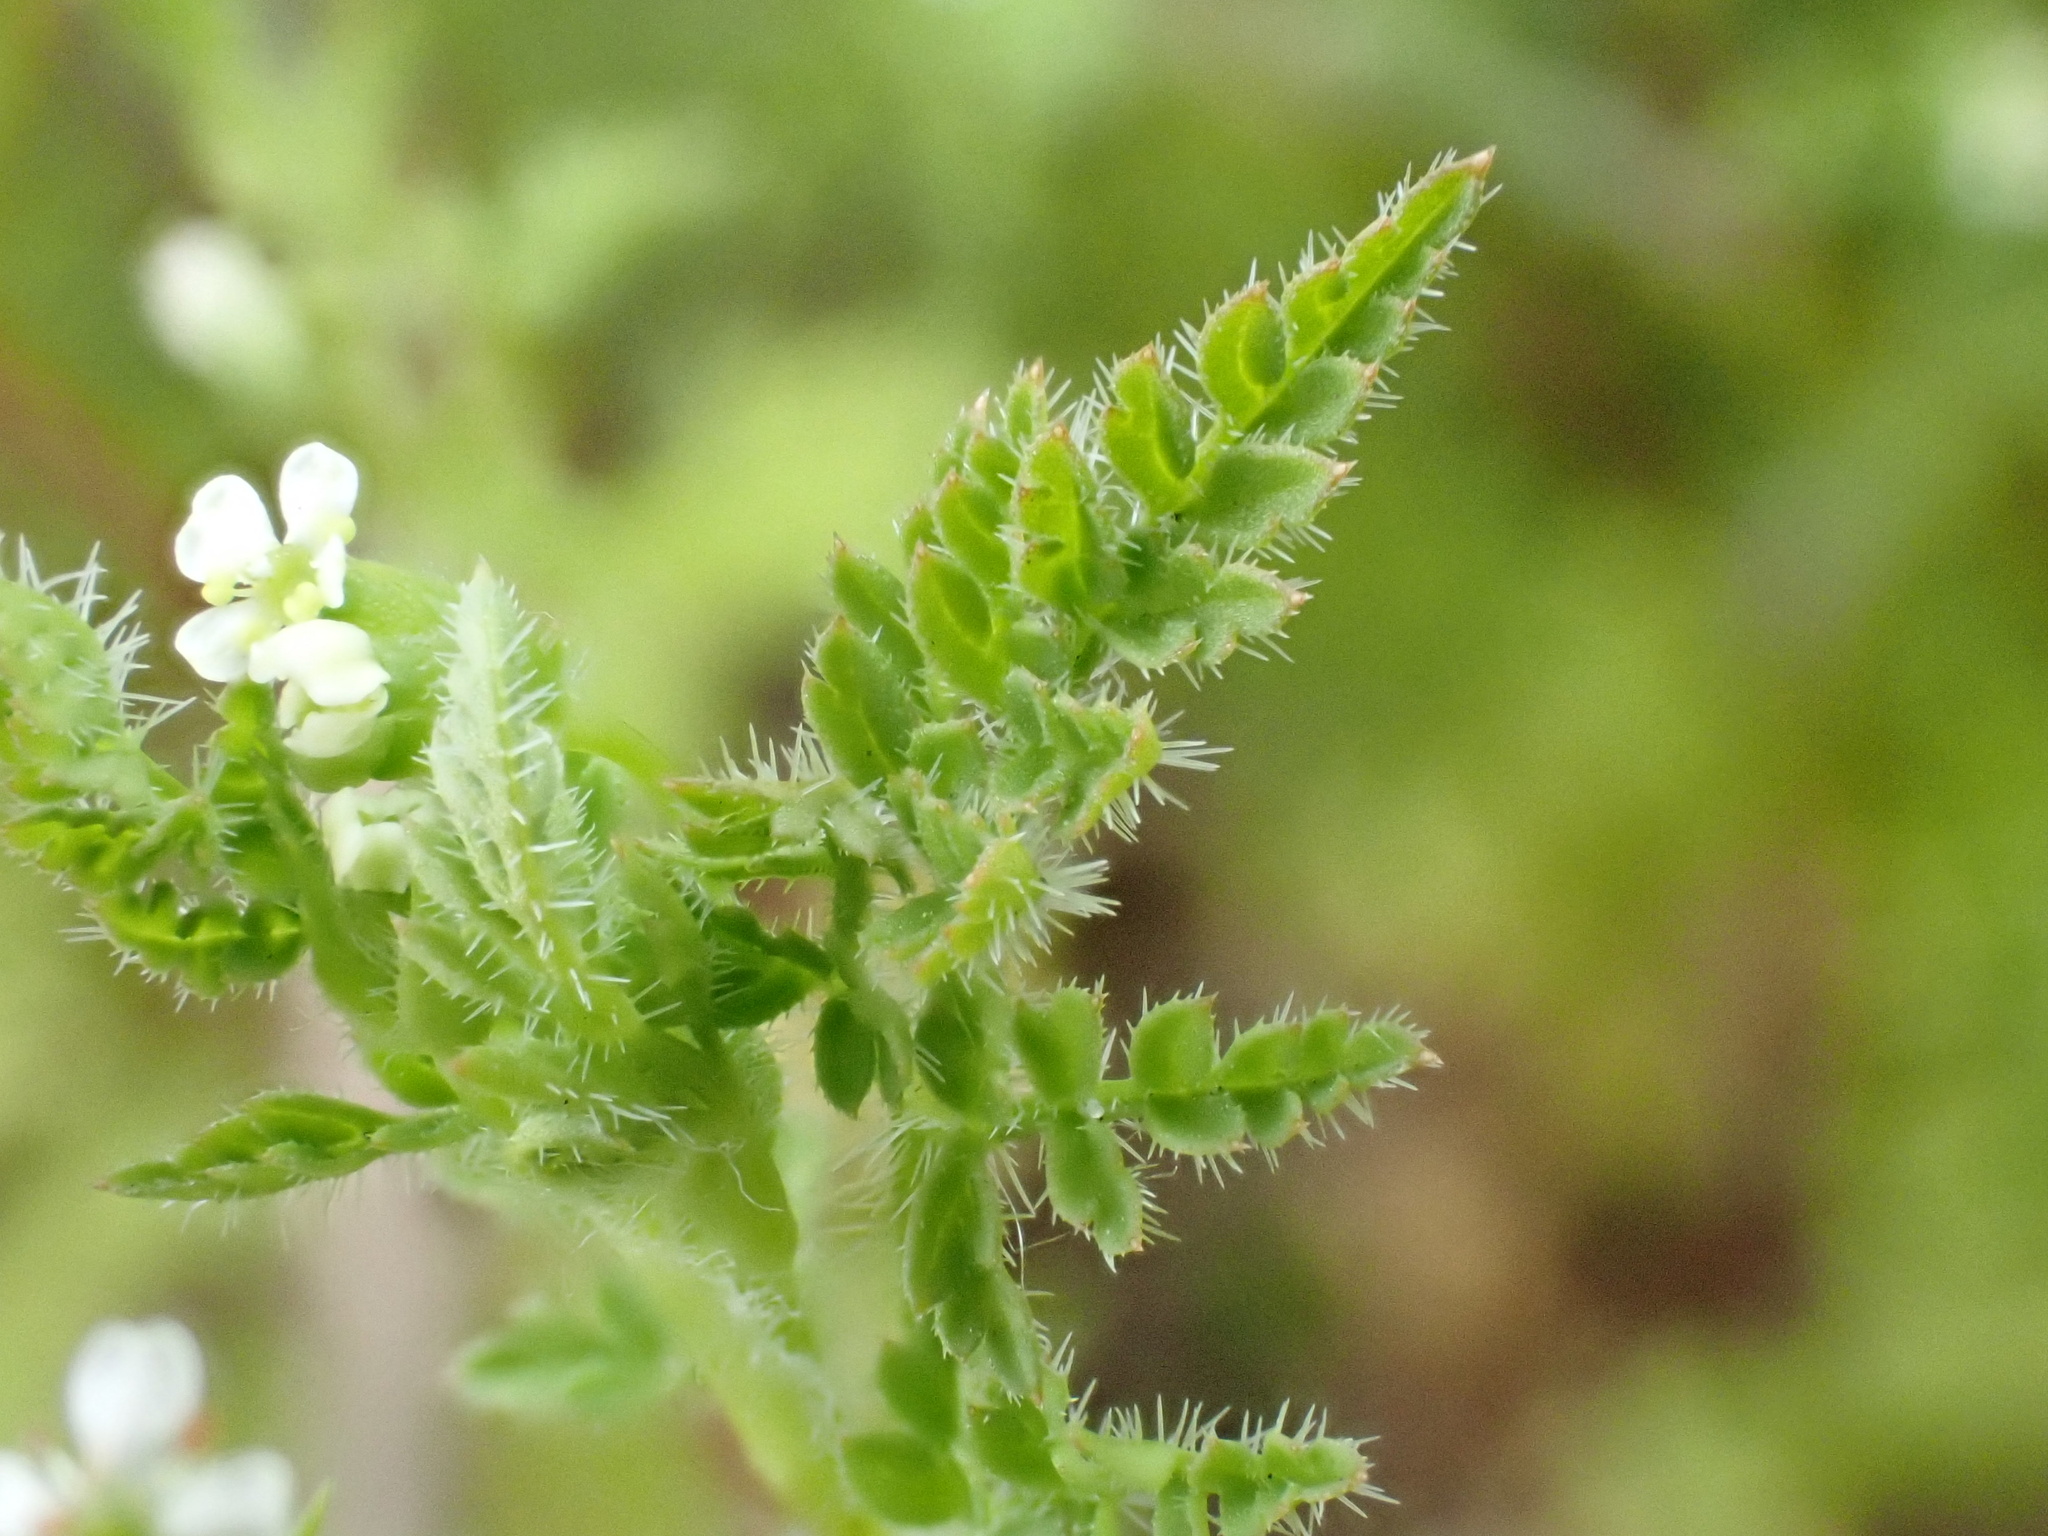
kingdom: Plantae
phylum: Tracheophyta
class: Magnoliopsida
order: Apiales
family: Apiaceae
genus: Anthriscus
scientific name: Anthriscus caucalis
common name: Bur chervil
